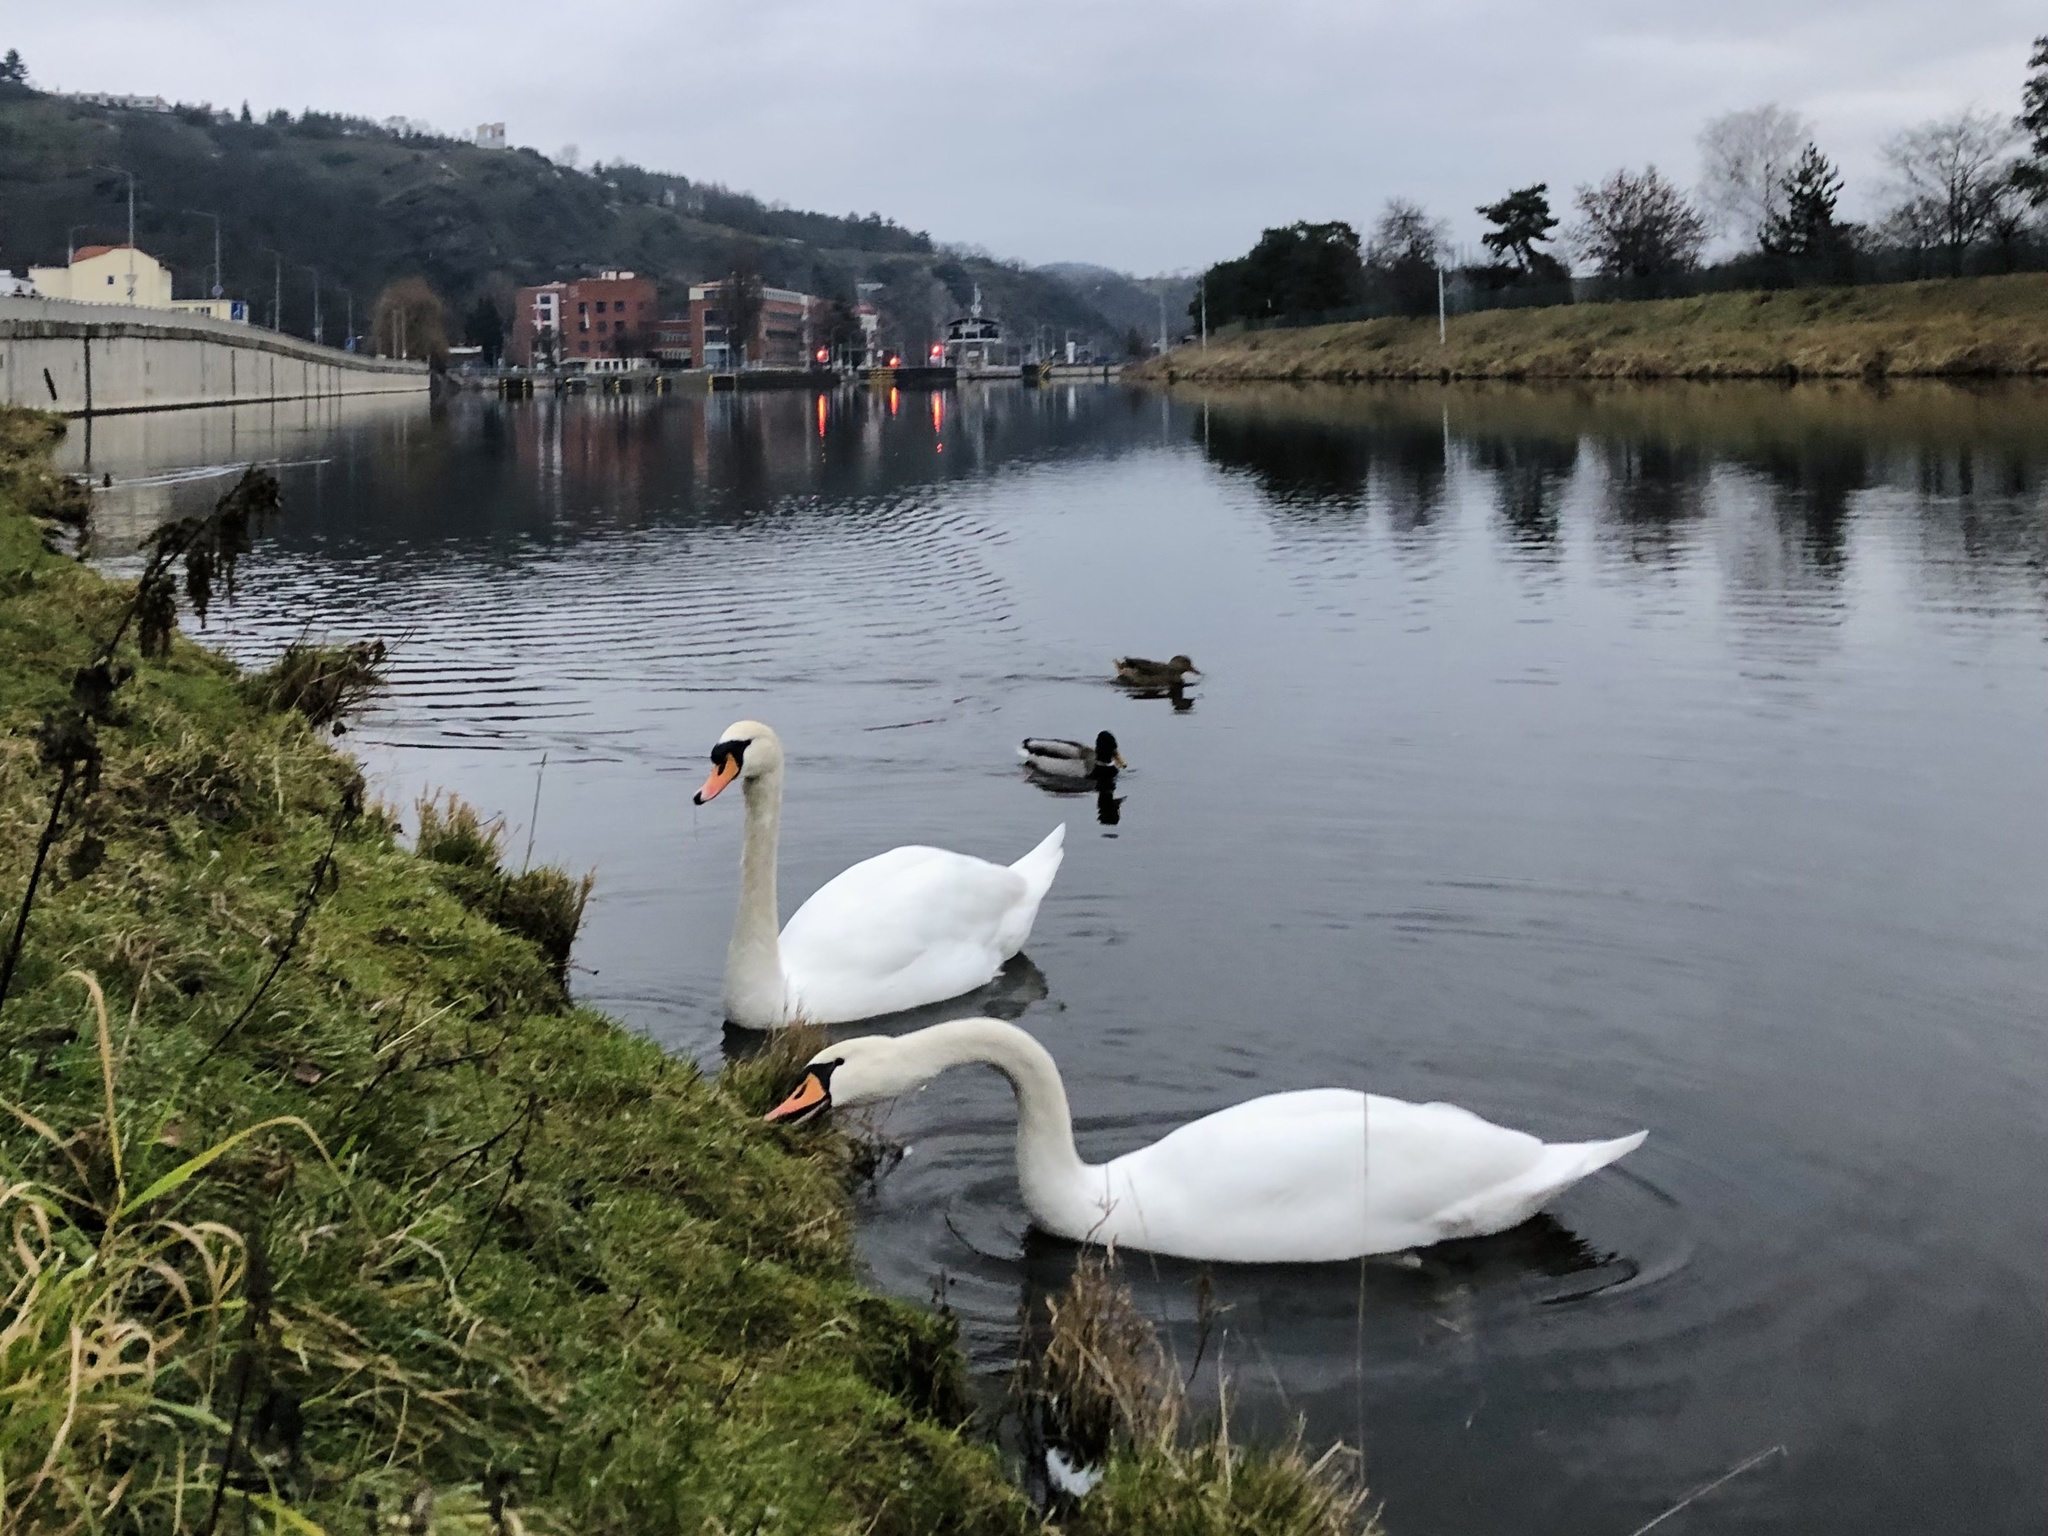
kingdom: Animalia
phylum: Chordata
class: Aves
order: Anseriformes
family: Anatidae
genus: Cygnus
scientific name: Cygnus olor
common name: Mute swan
